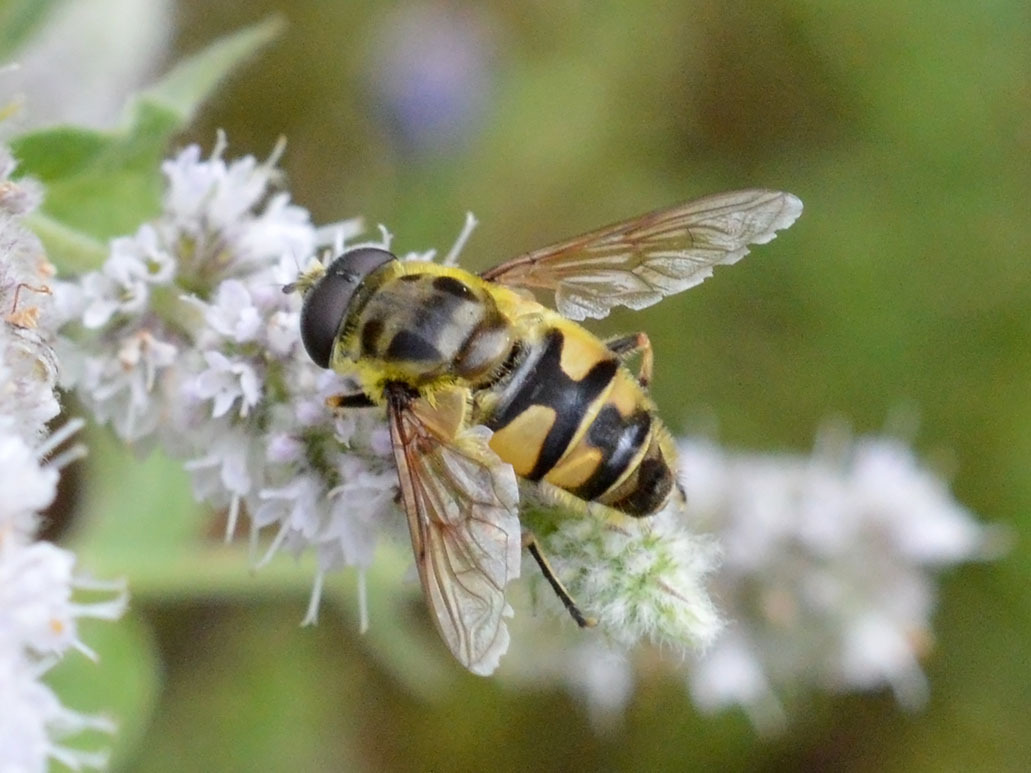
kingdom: Animalia
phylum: Arthropoda
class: Insecta
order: Diptera
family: Syrphidae
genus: Myathropa
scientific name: Myathropa florea
